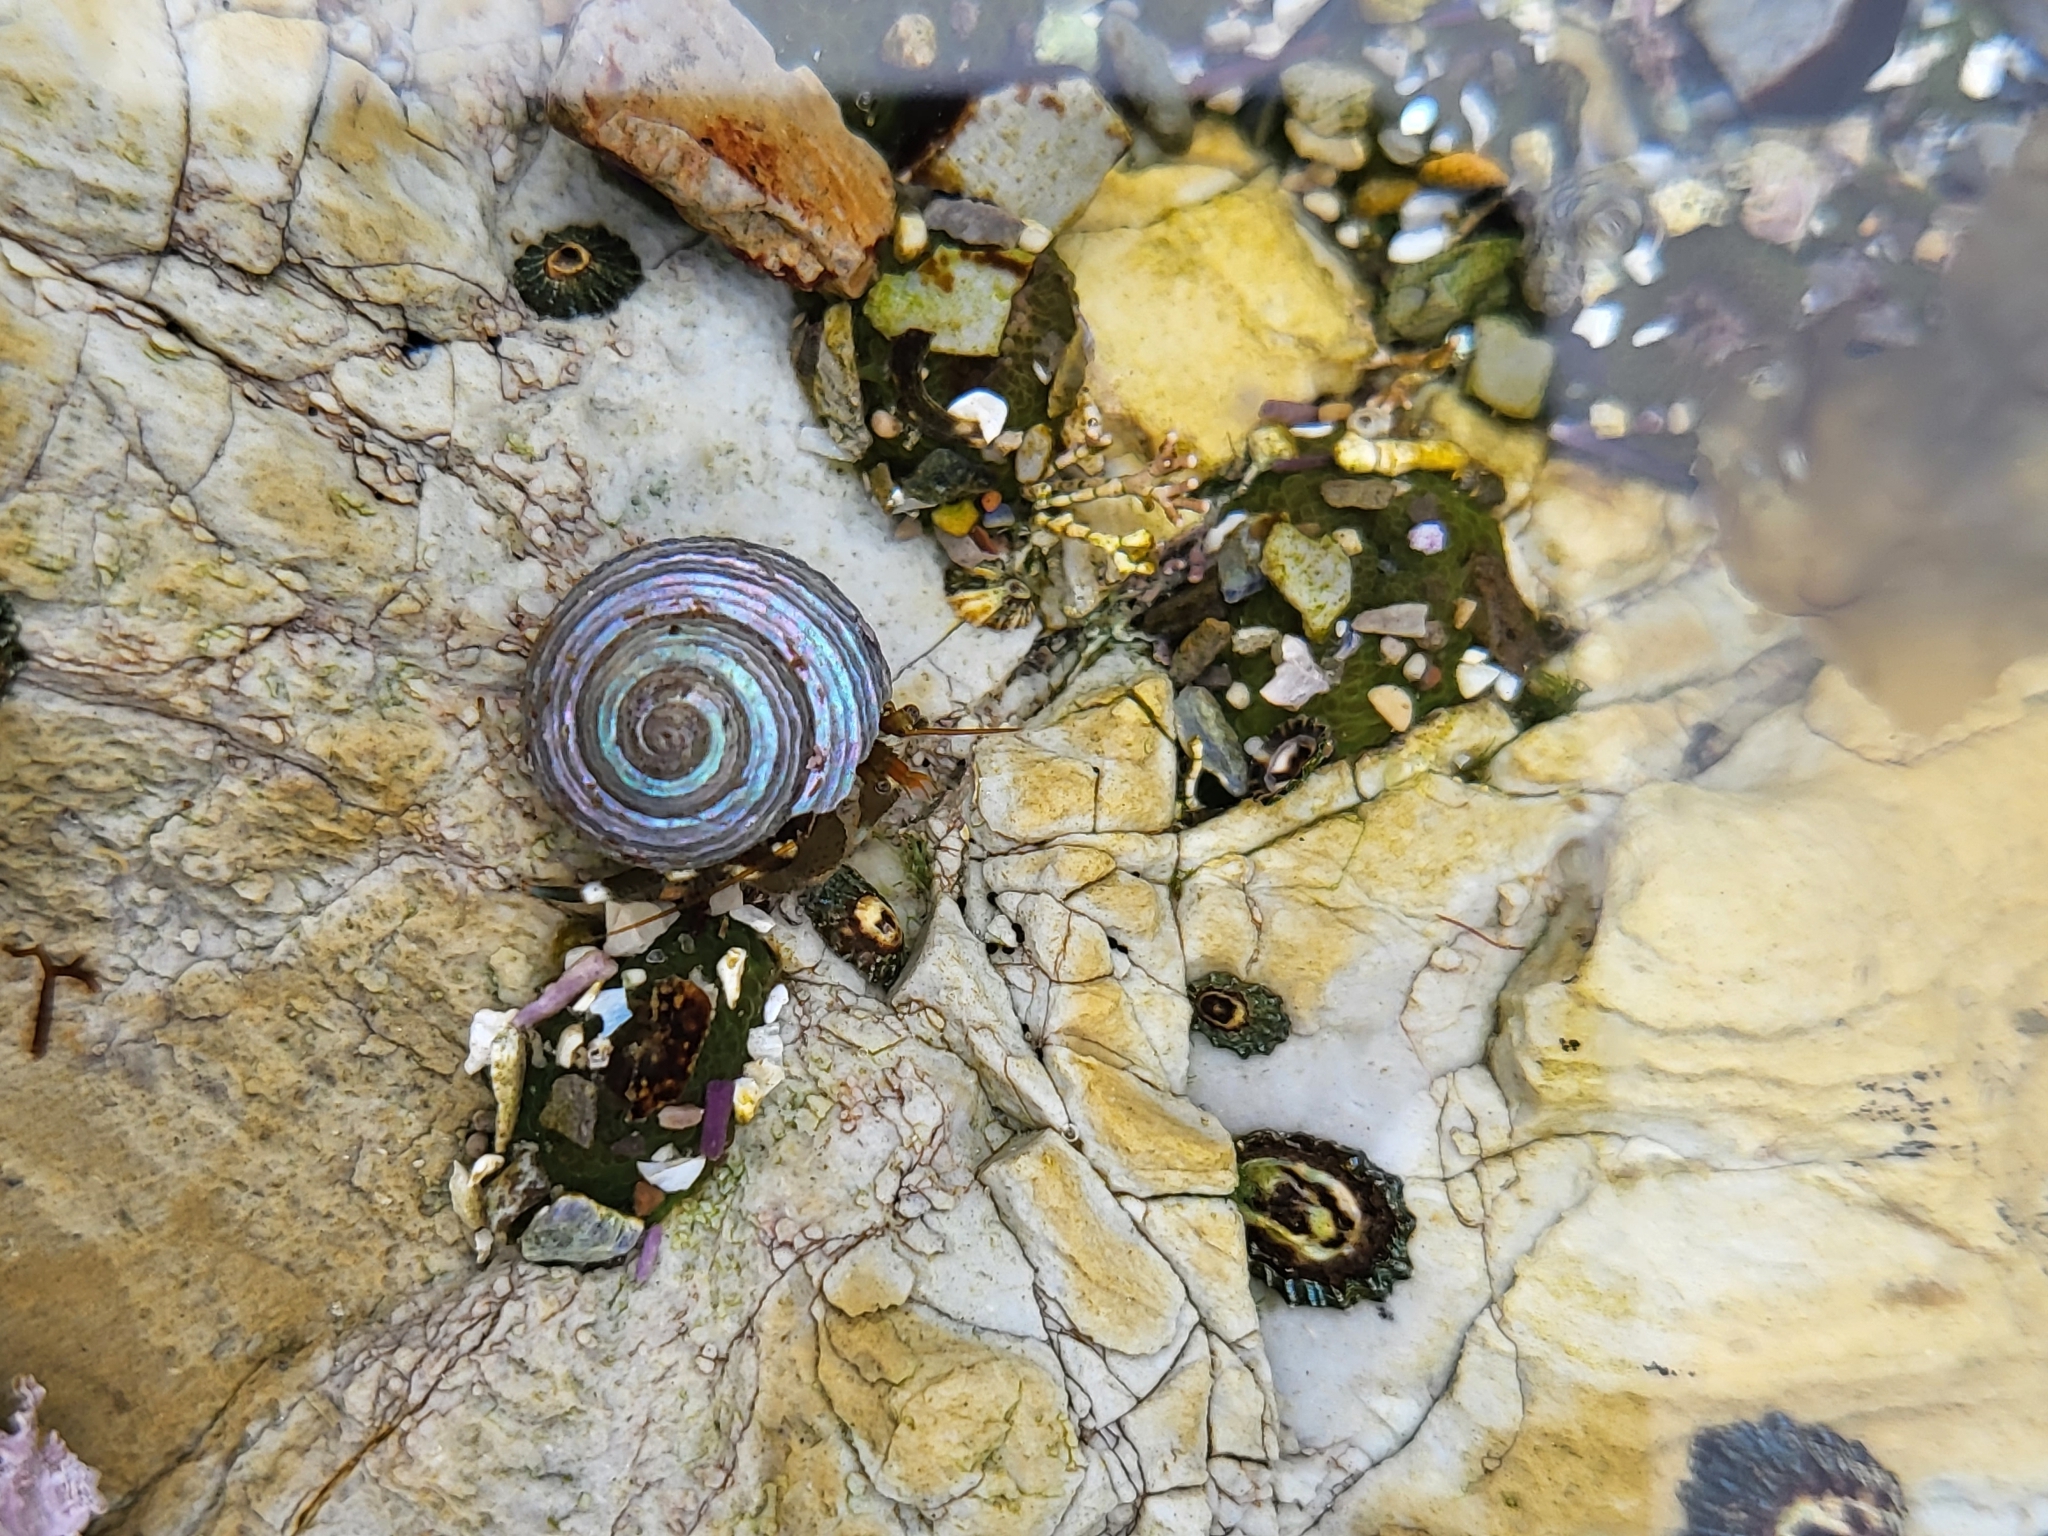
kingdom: Animalia
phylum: Mollusca
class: Gastropoda
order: Trochida
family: Calliostomatidae
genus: Calliostoma
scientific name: Calliostoma ligatum
